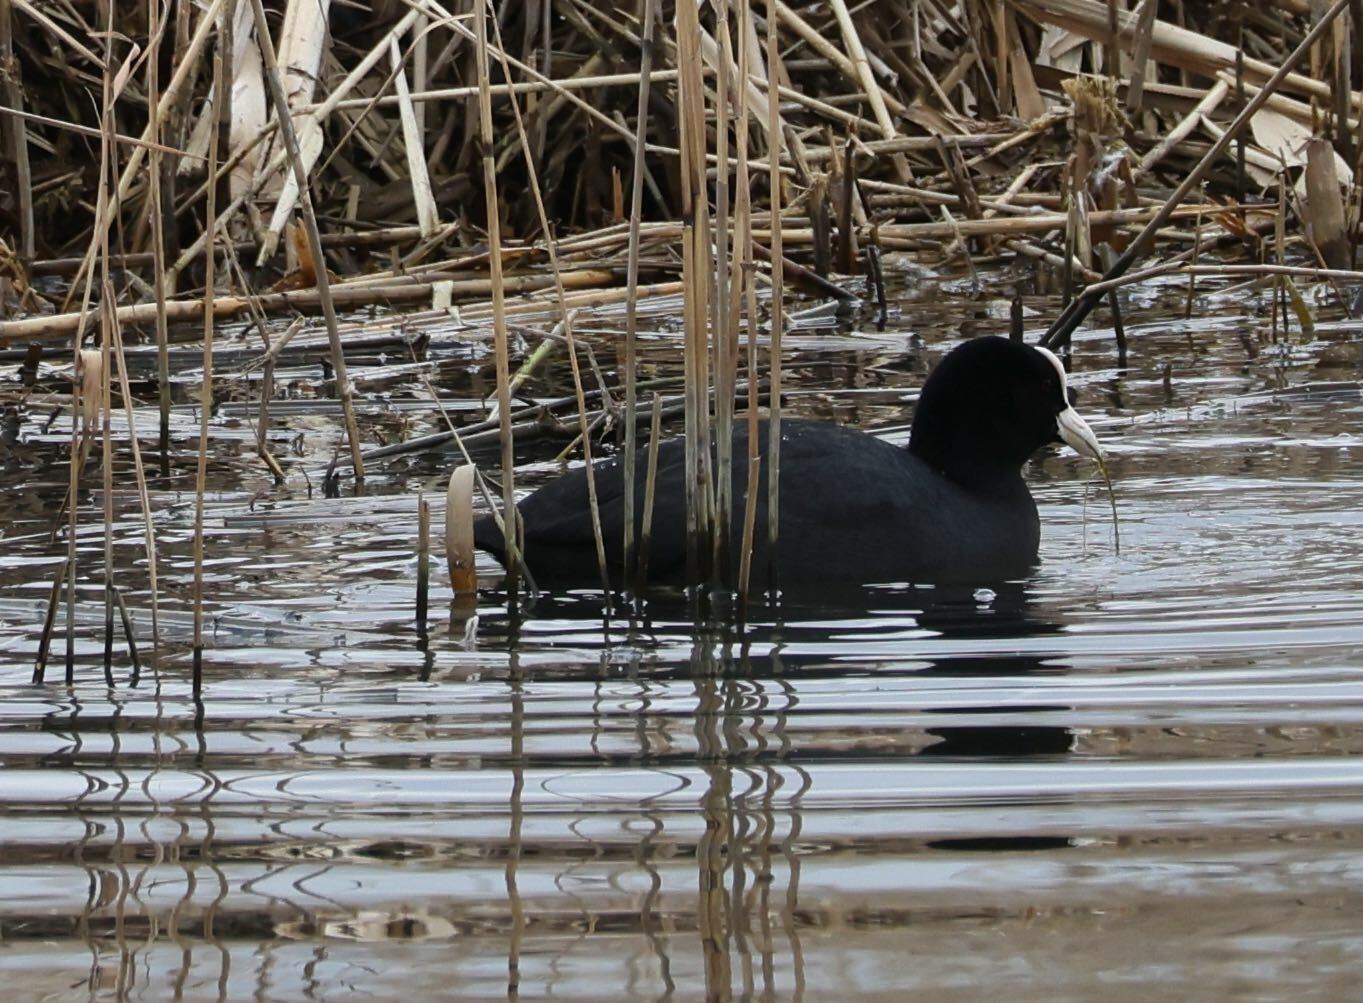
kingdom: Animalia
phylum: Chordata
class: Aves
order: Gruiformes
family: Rallidae
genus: Fulica
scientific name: Fulica atra
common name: Eurasian coot
